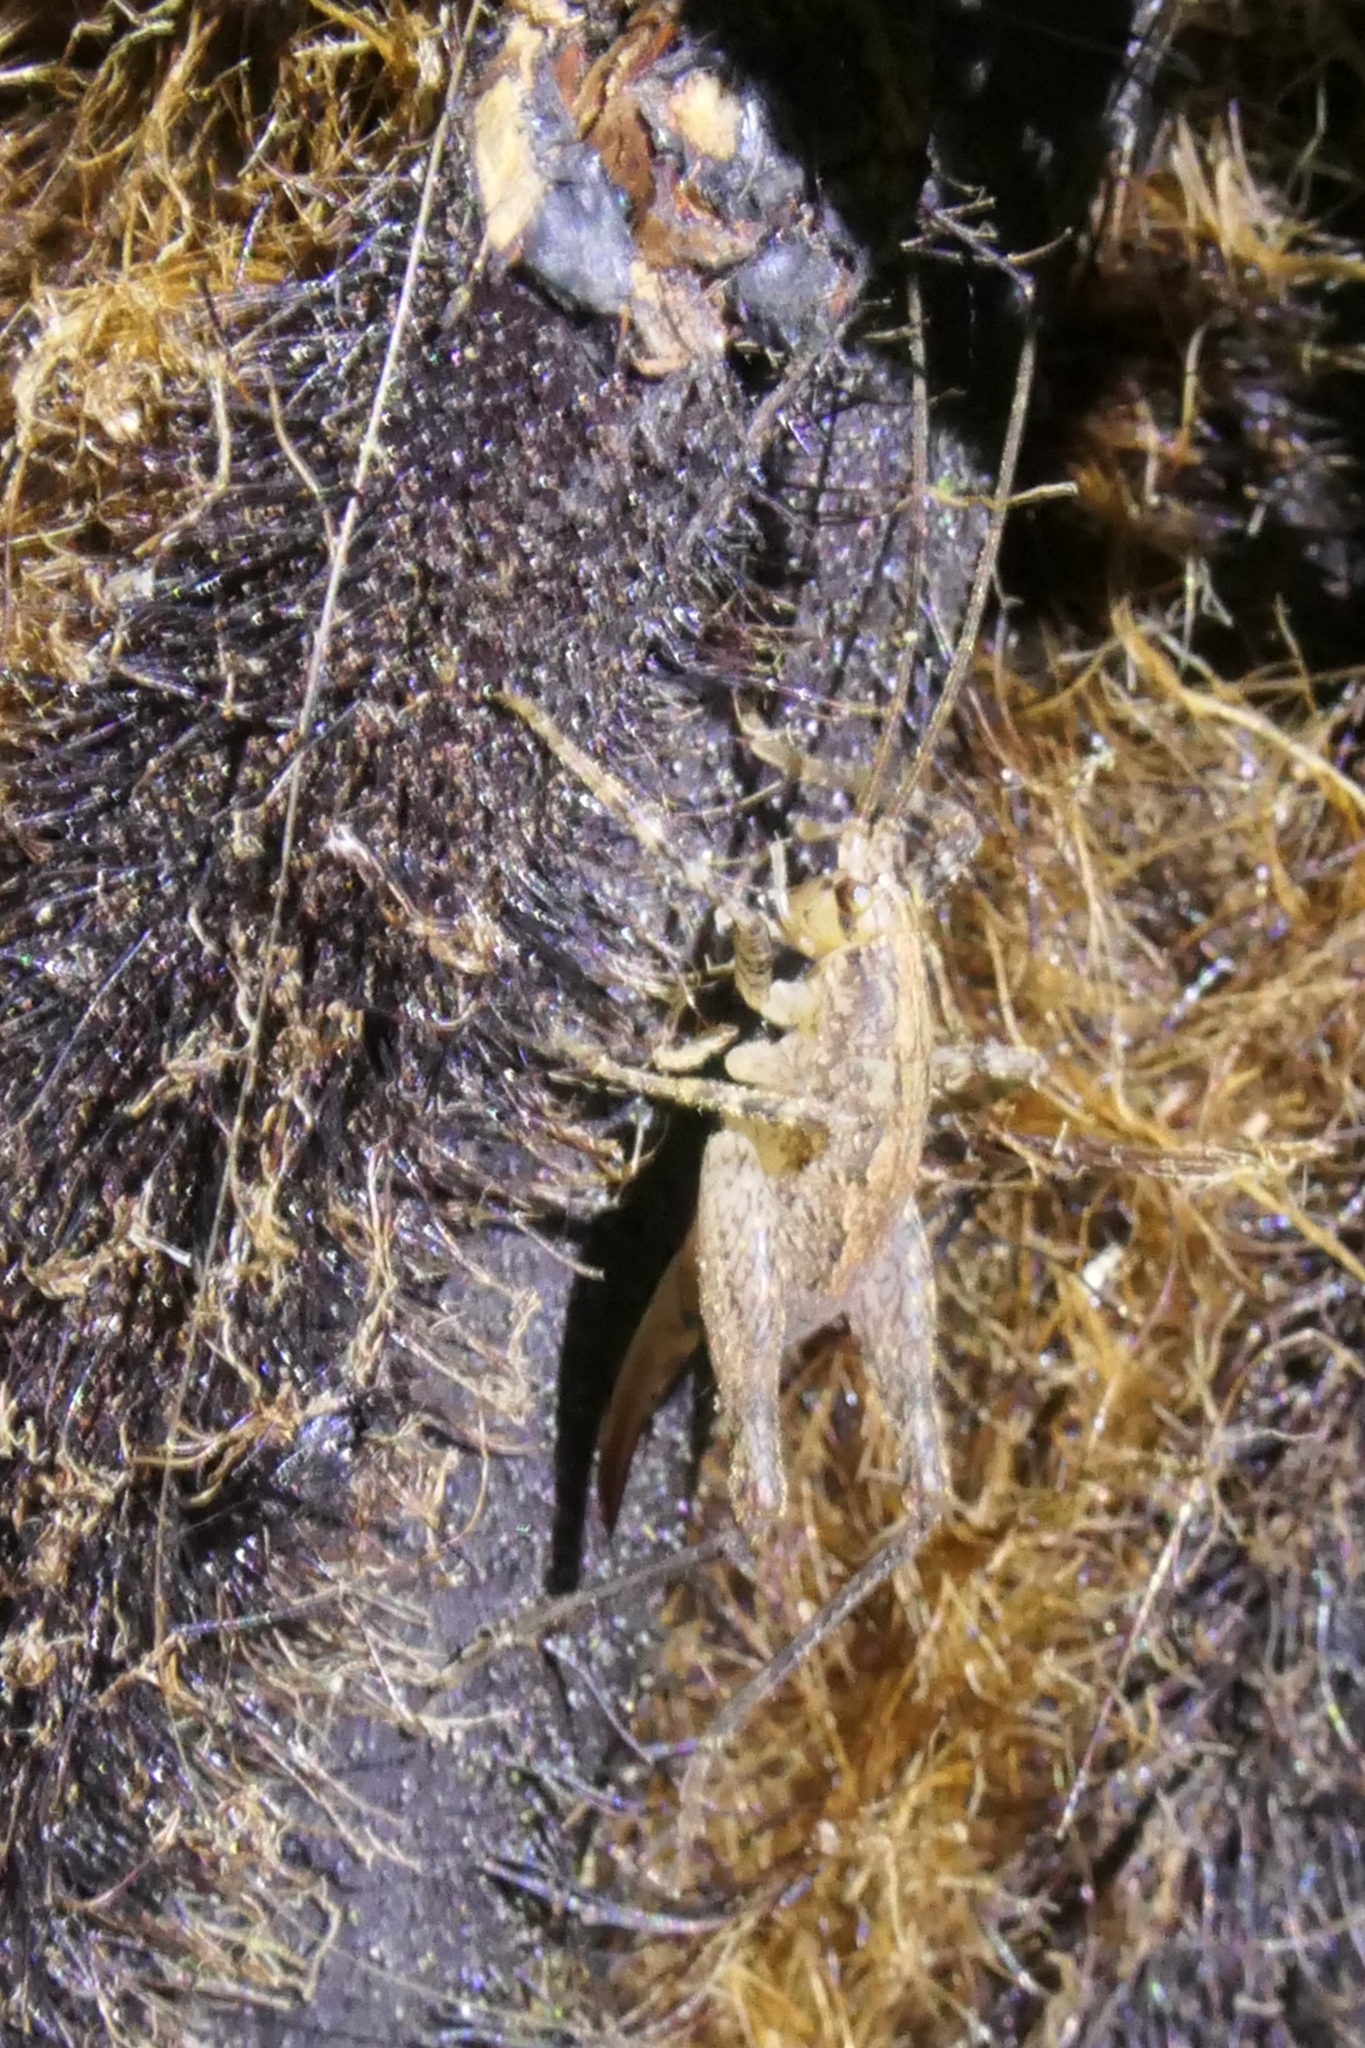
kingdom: Animalia
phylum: Arthropoda
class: Insecta
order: Orthoptera
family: Rhaphidophoridae
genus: Isoplectron
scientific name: Isoplectron armatum
